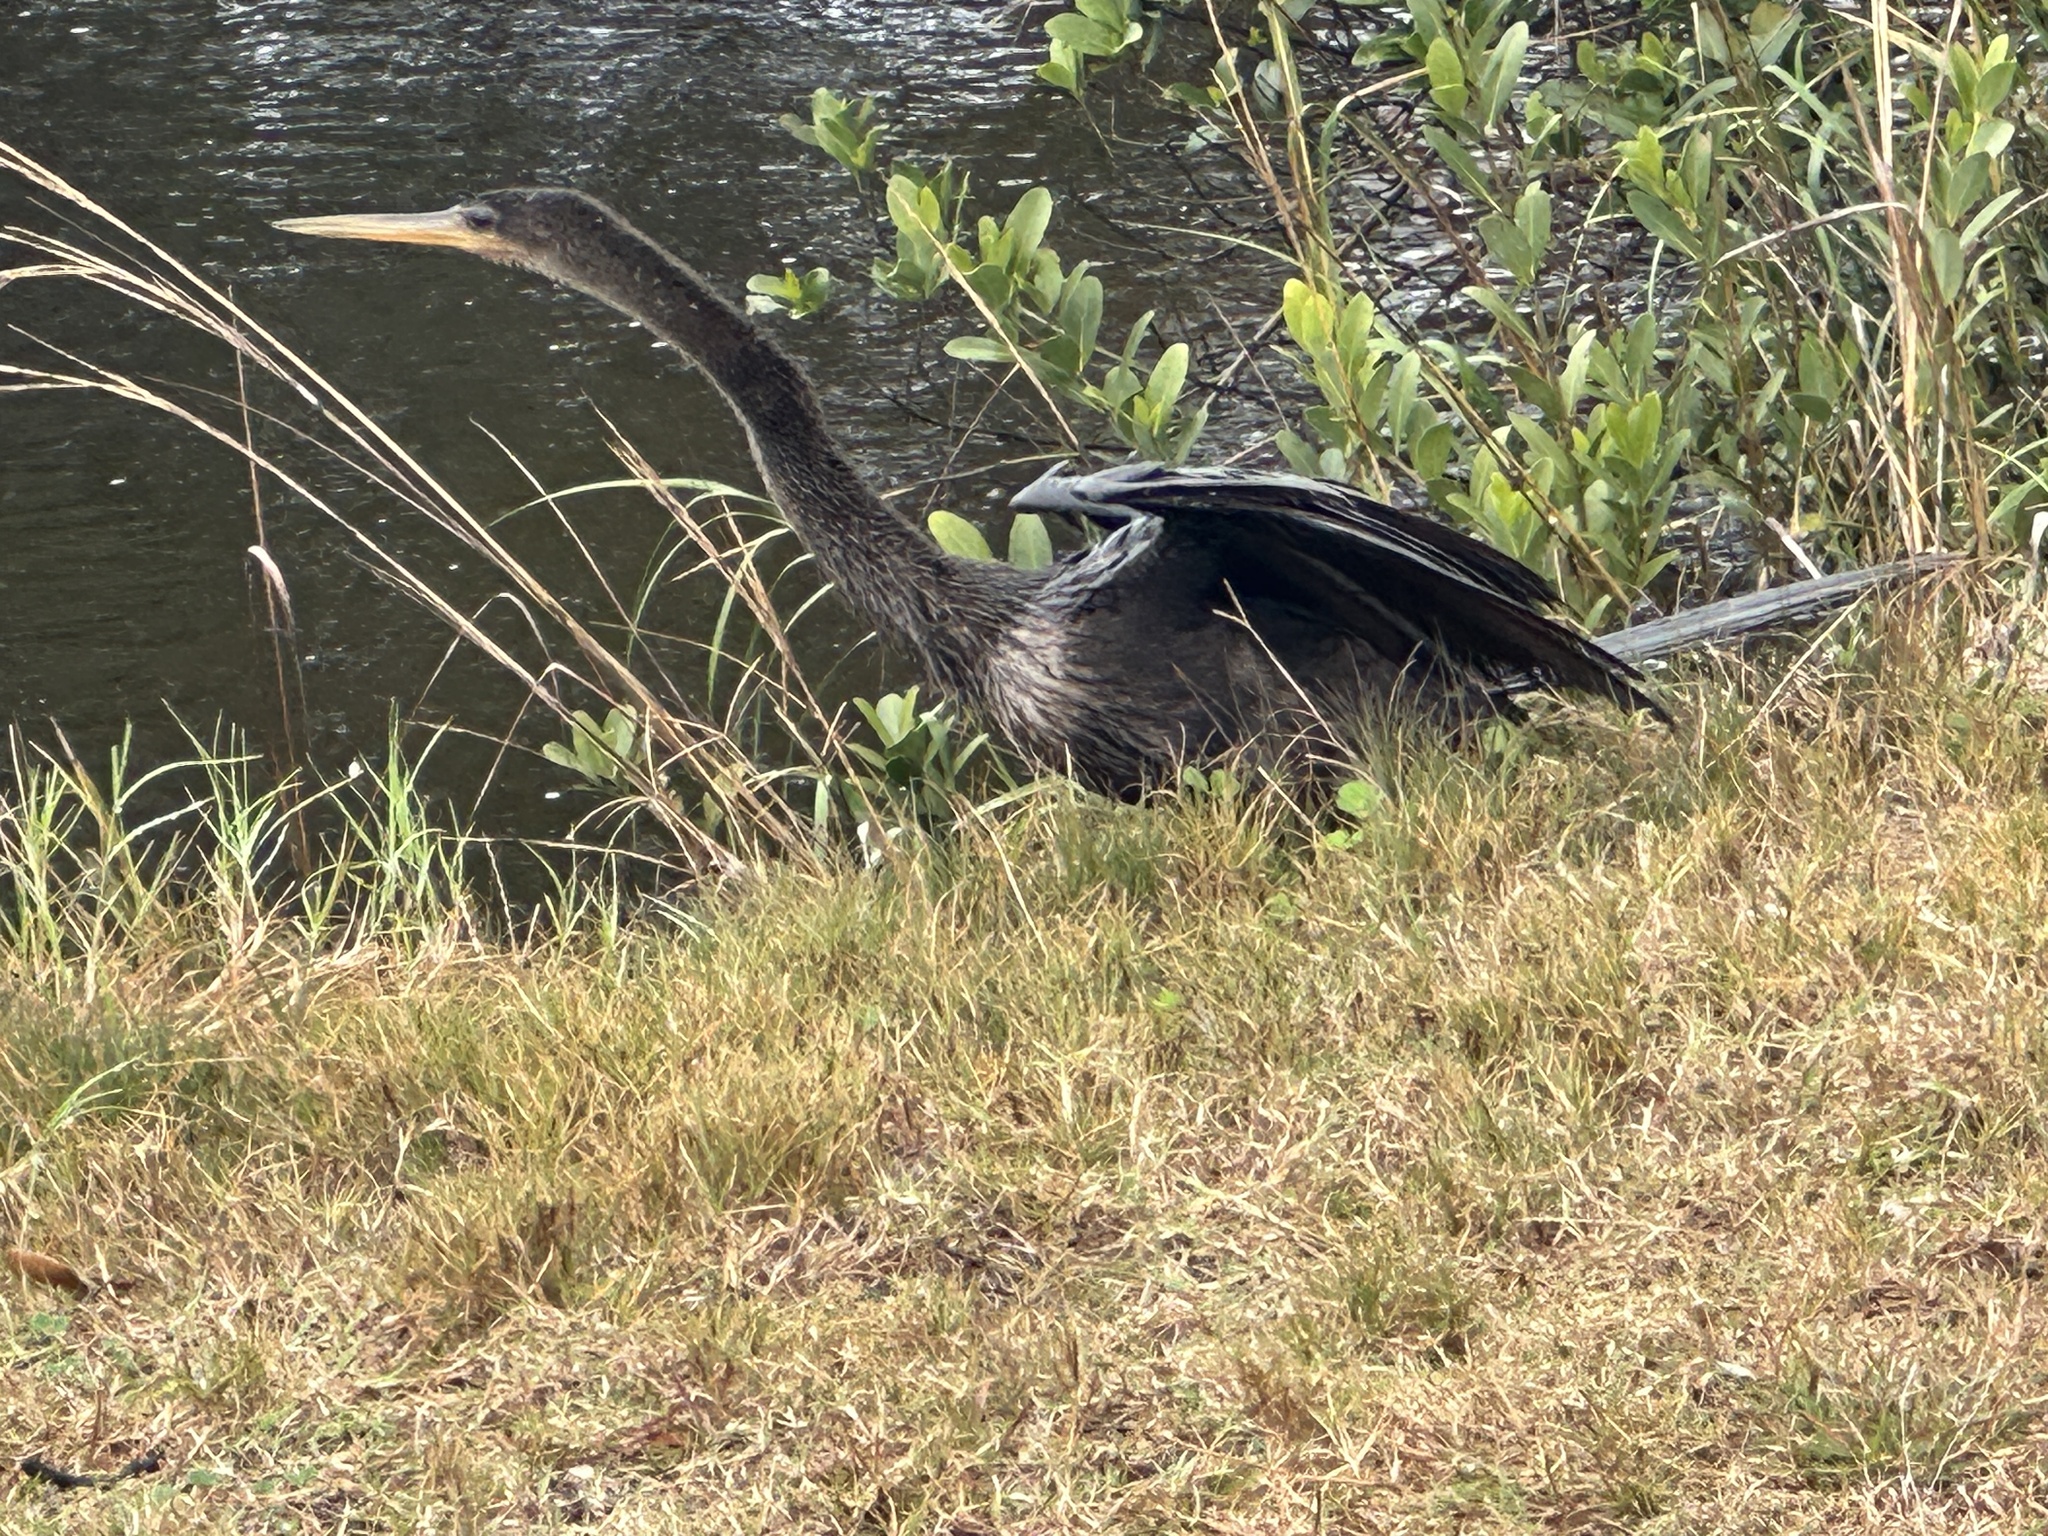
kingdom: Animalia
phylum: Chordata
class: Aves
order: Suliformes
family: Anhingidae
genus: Anhinga
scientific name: Anhinga anhinga
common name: Anhinga
